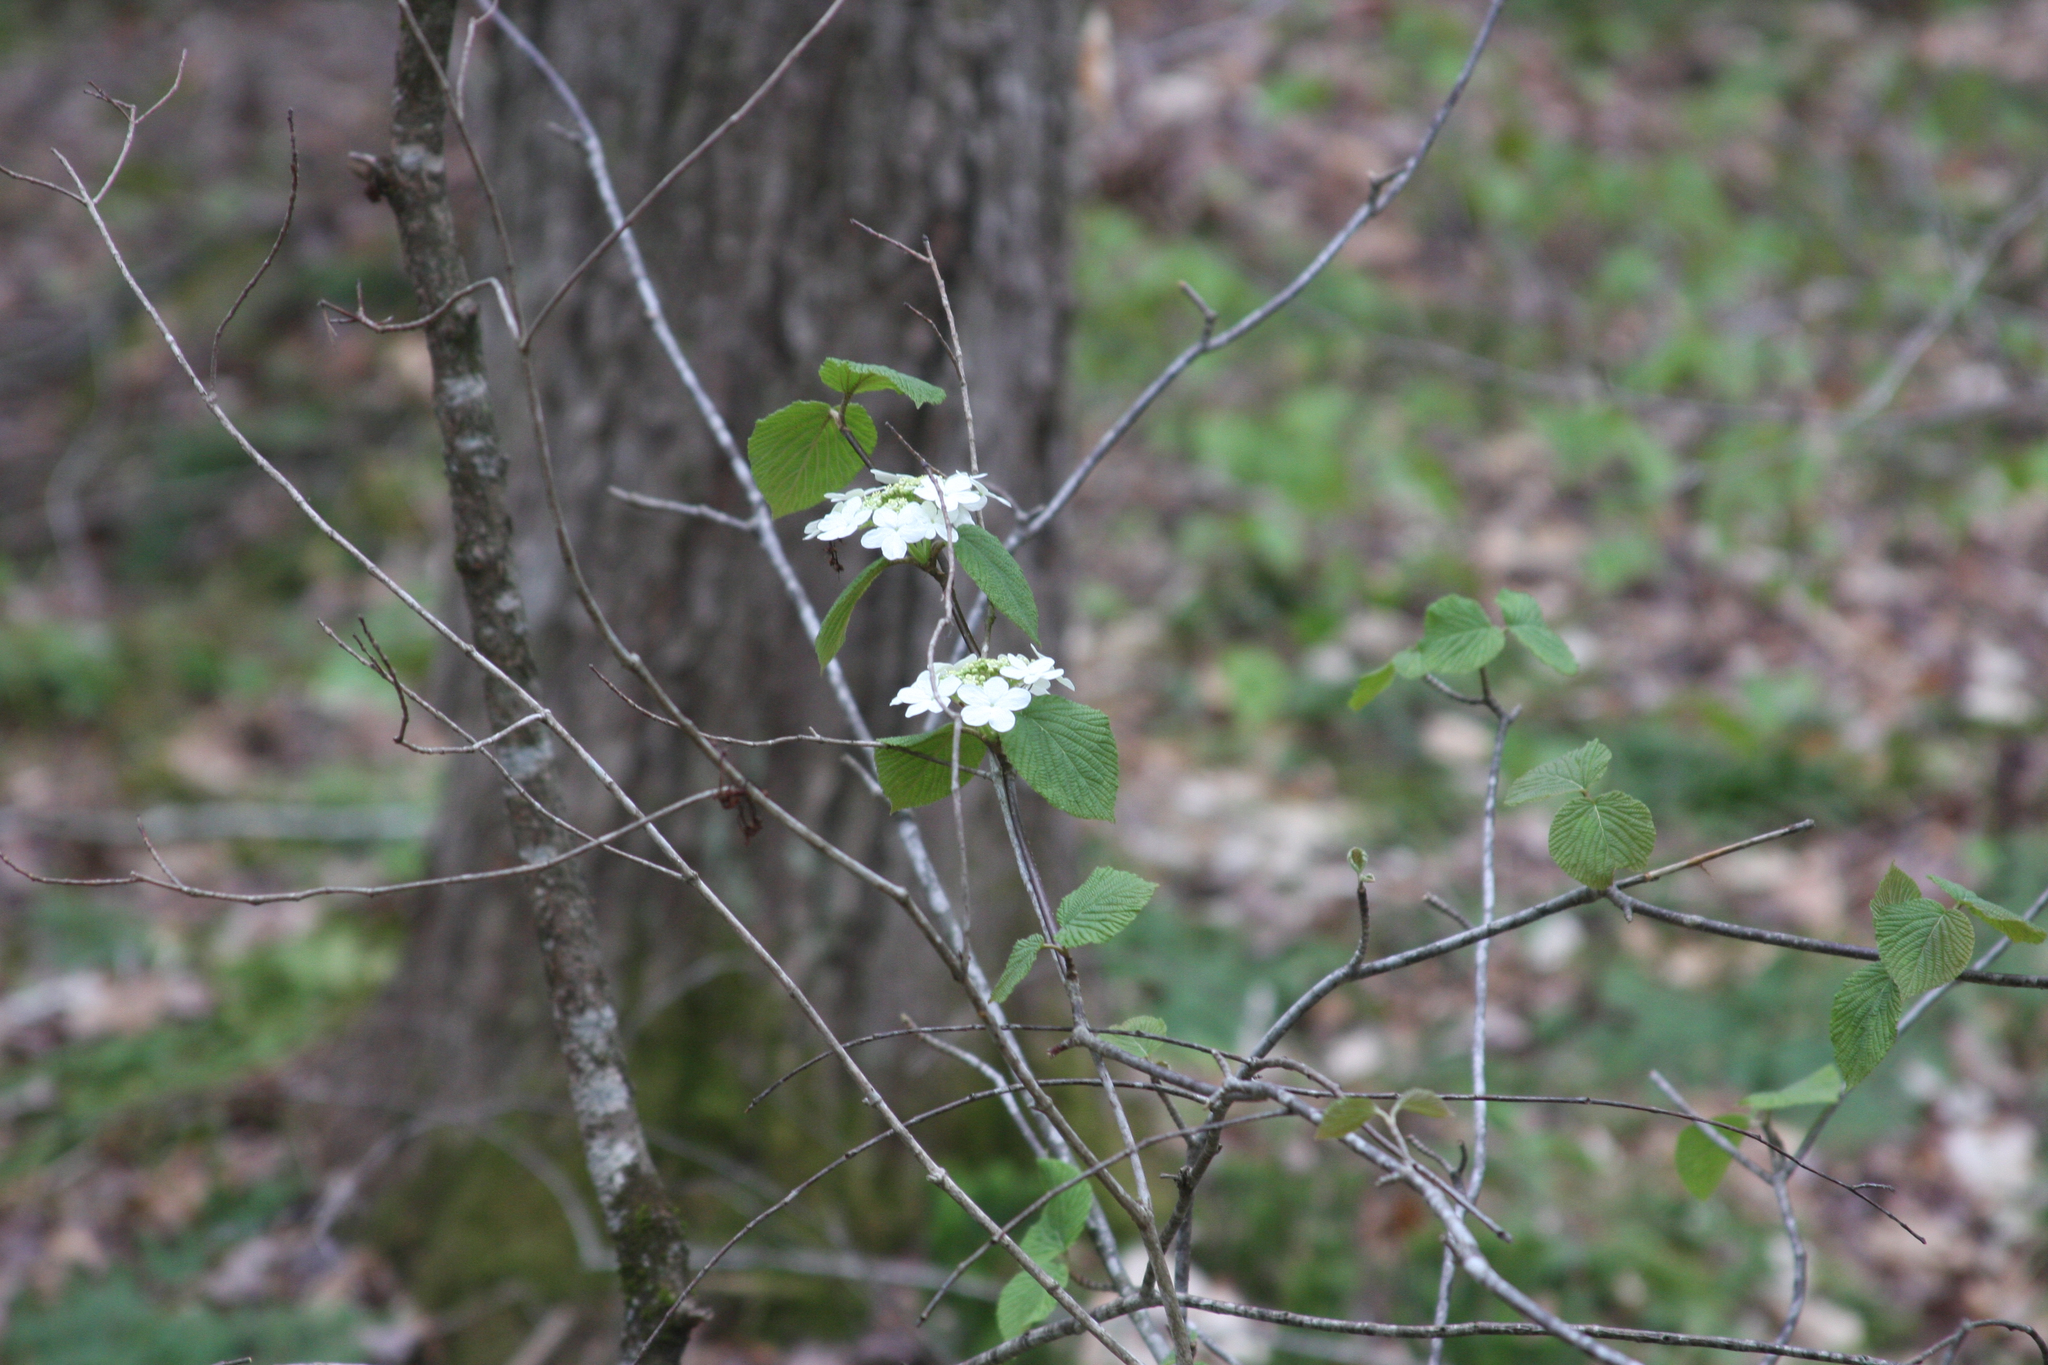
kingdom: Plantae
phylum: Tracheophyta
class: Magnoliopsida
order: Dipsacales
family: Viburnaceae
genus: Viburnum
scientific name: Viburnum lantanoides
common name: Hobblebush
